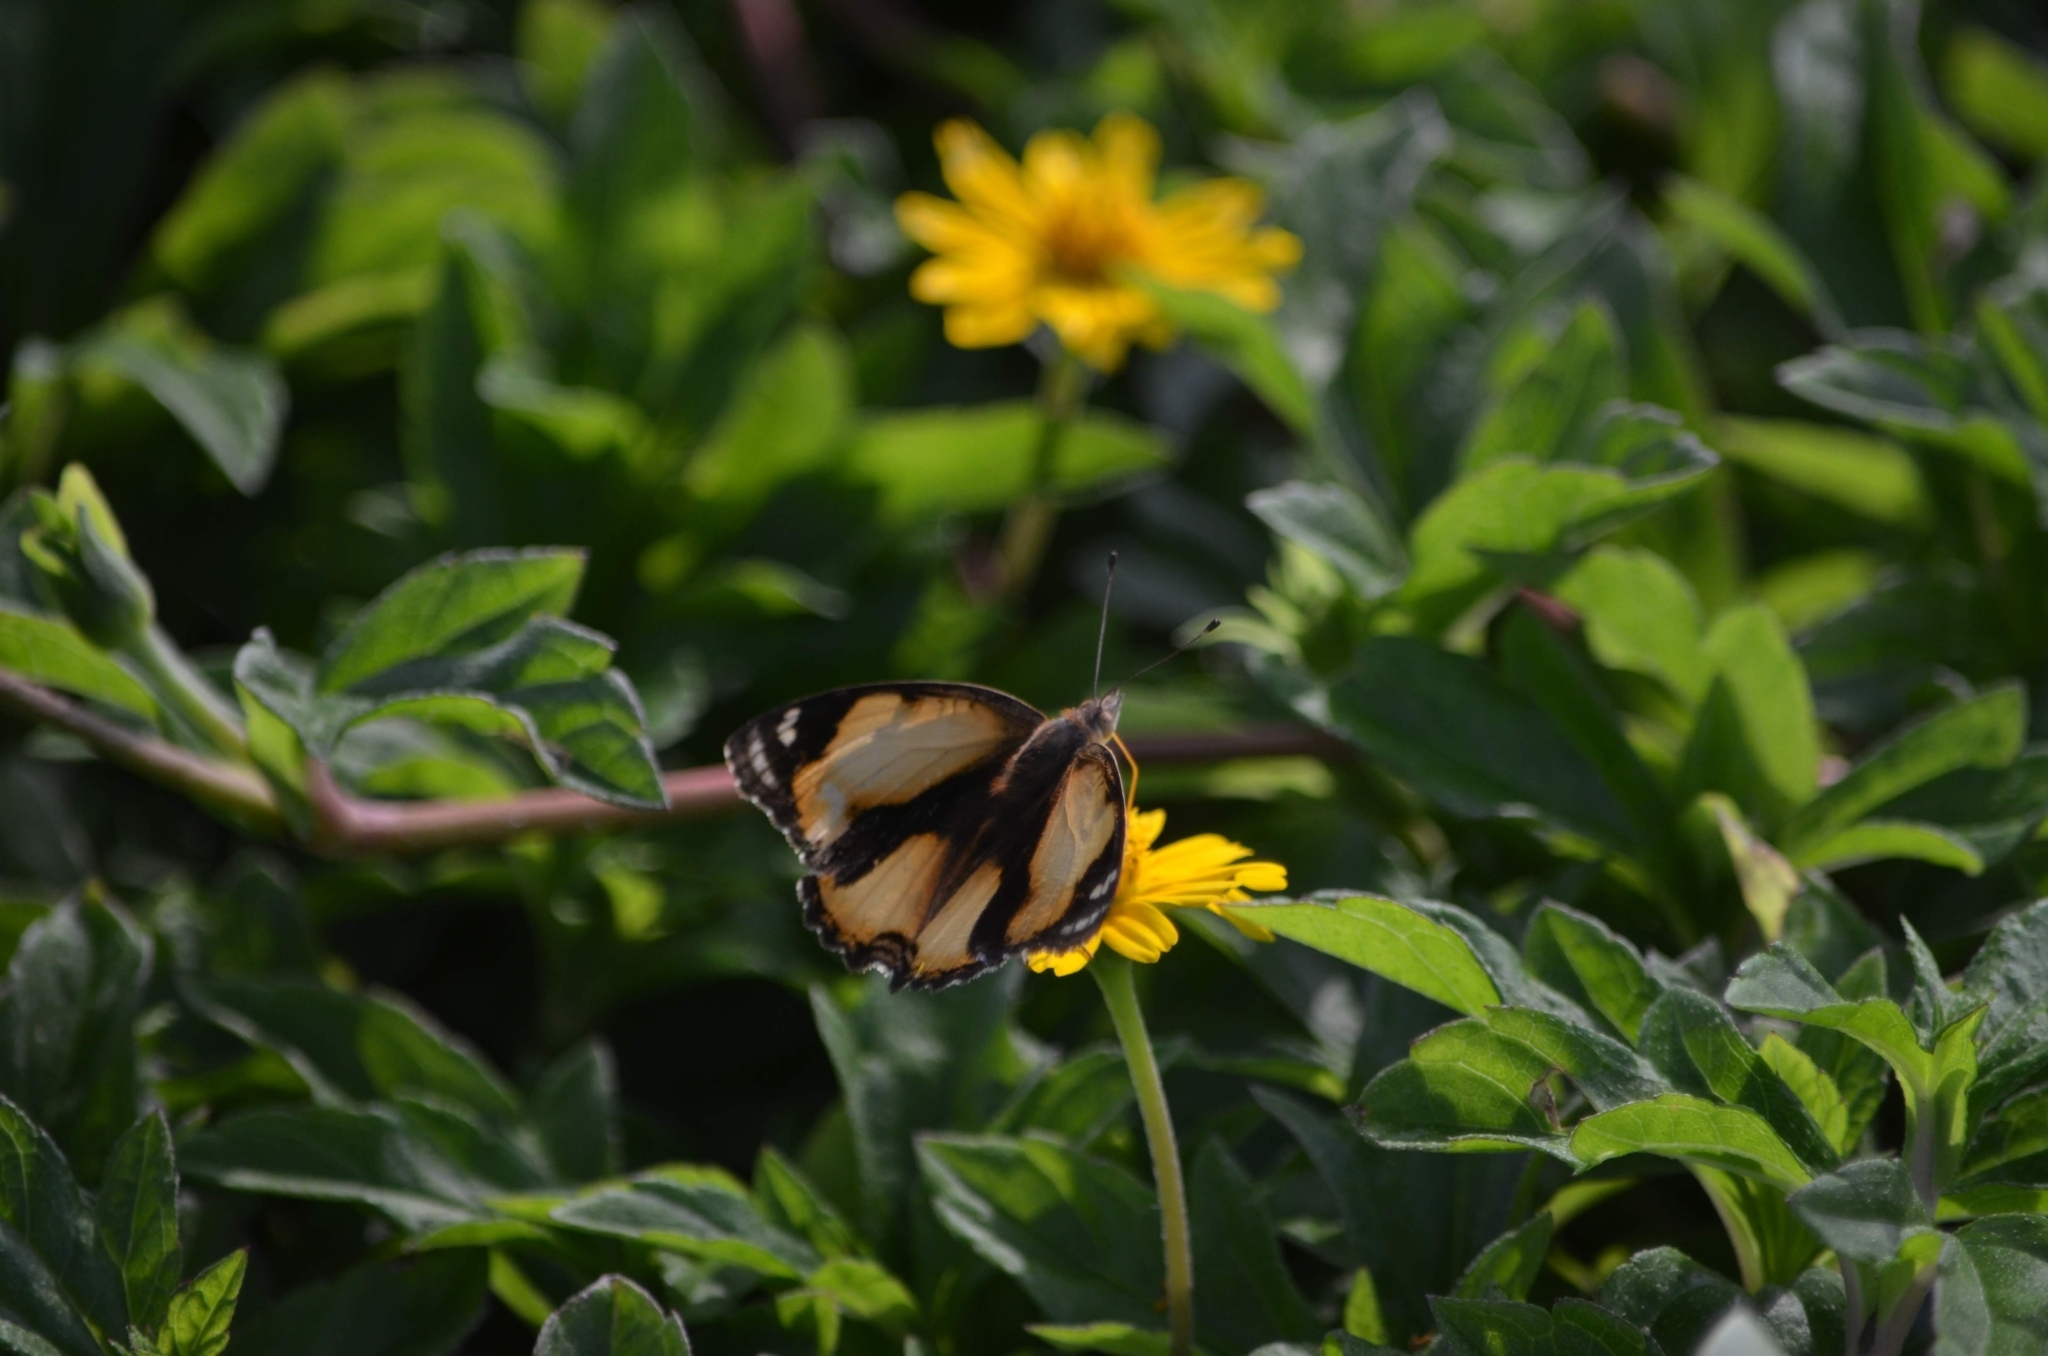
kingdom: Animalia
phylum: Arthropoda
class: Insecta
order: Lepidoptera
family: Nymphalidae
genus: Junonia
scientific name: Junonia hierta
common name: Yellow pansy
